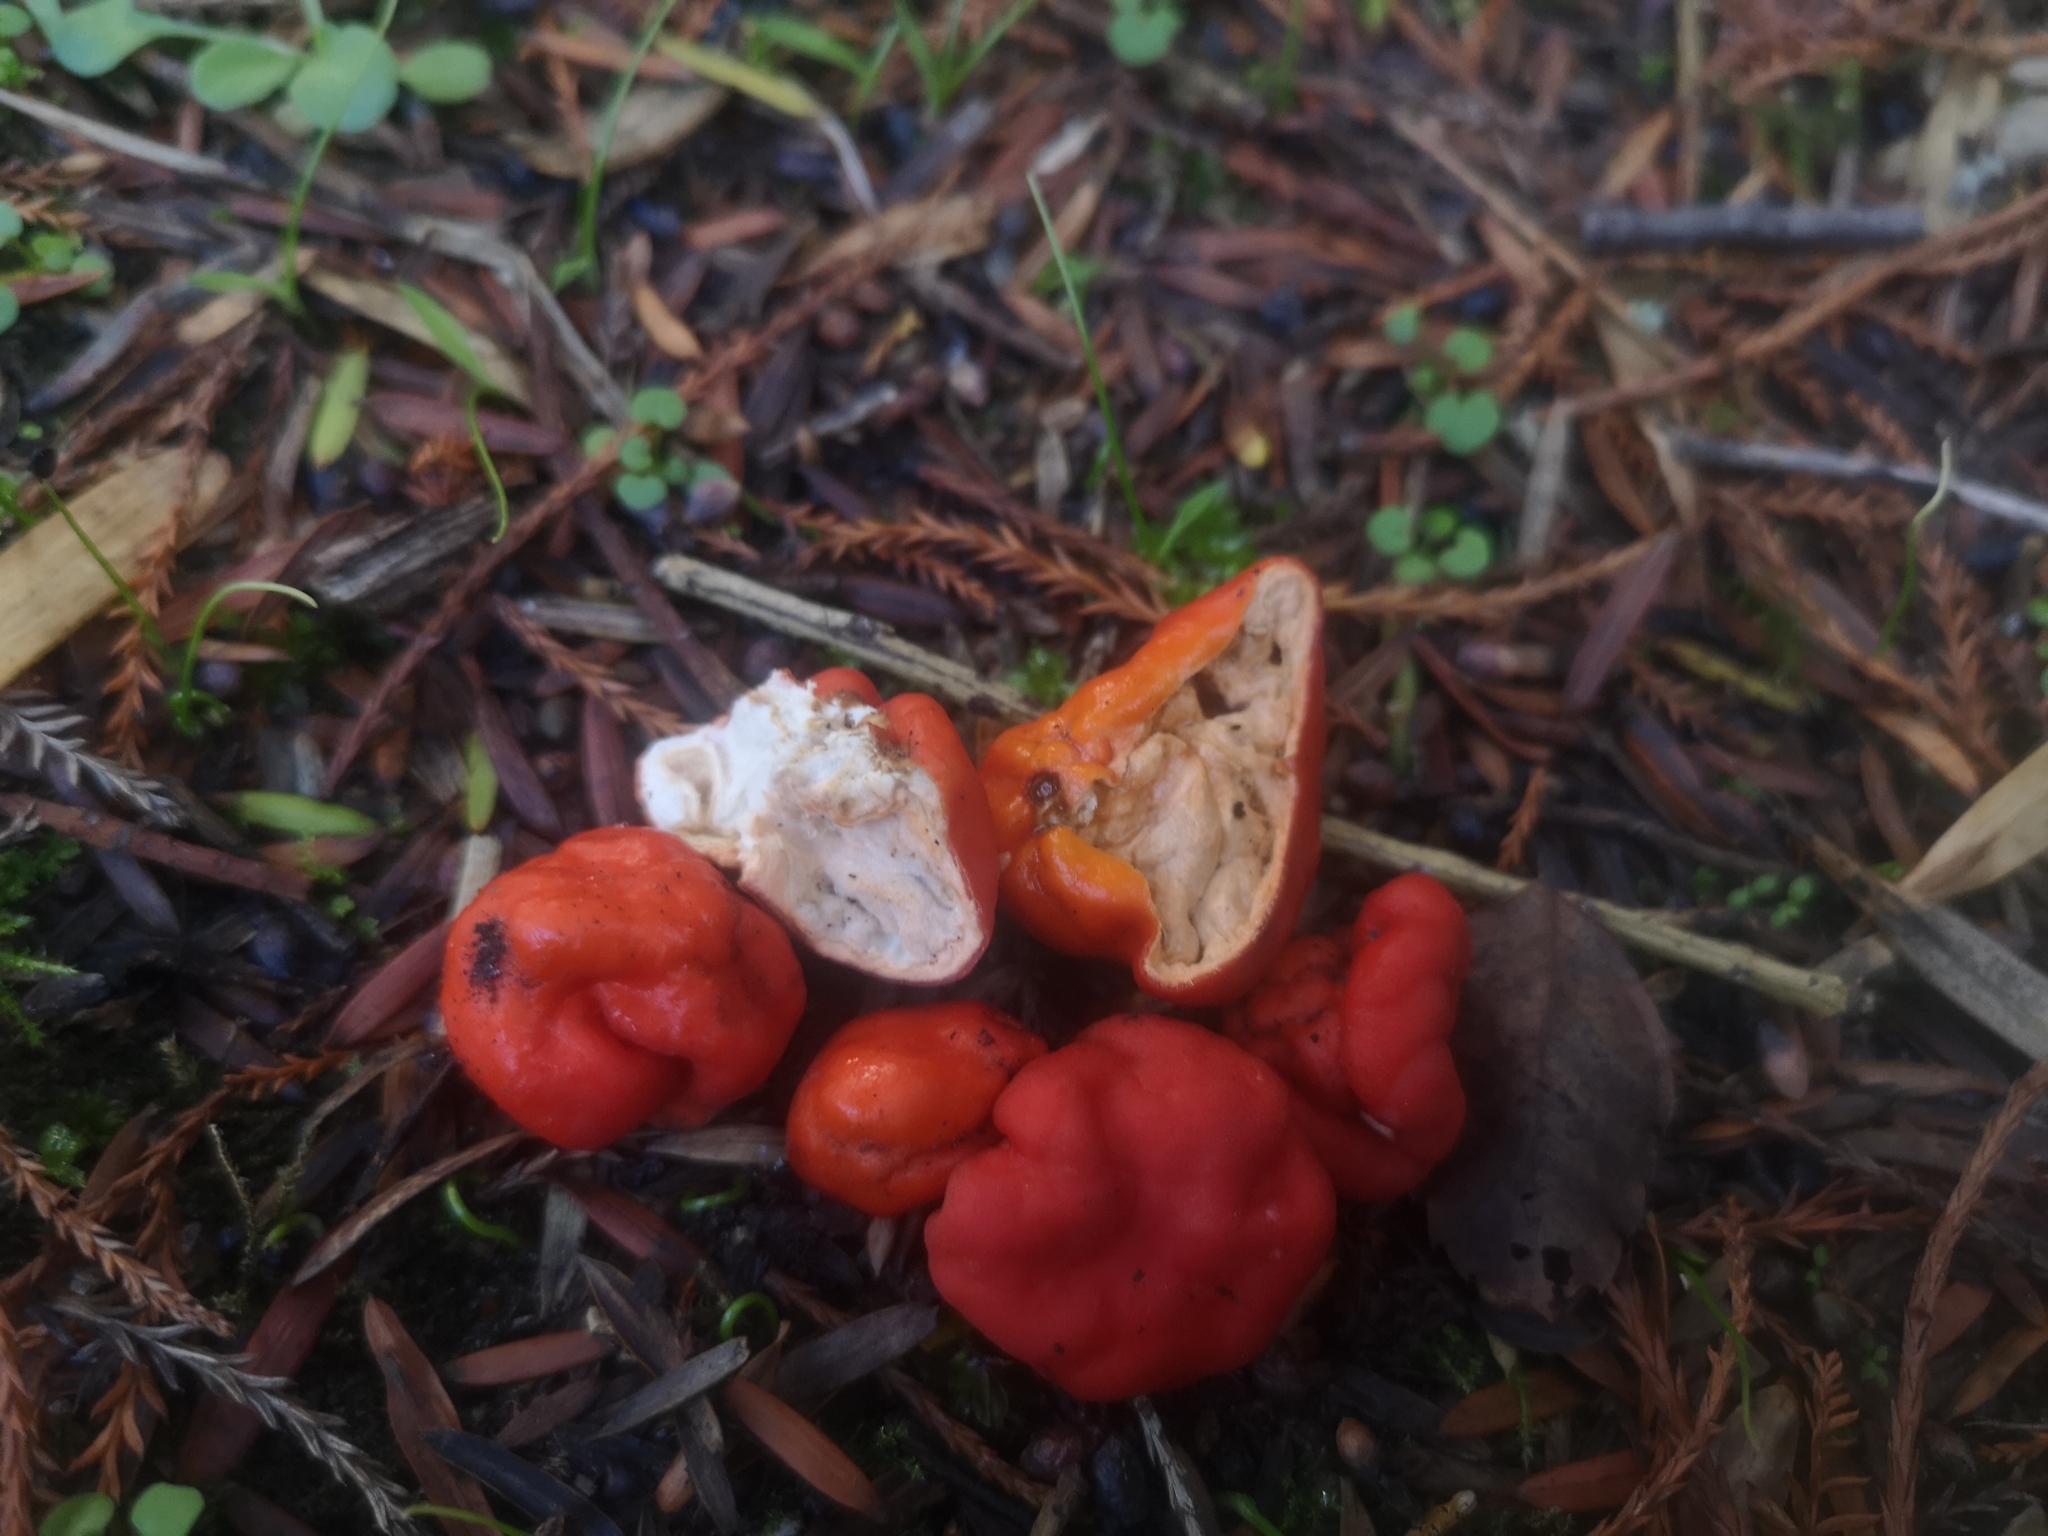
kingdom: Fungi
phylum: Ascomycota
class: Pezizomycetes
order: Pezizales
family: Pyronemataceae
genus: Paurocotylis
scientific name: Paurocotylis pila
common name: Scarlet berry truffle
